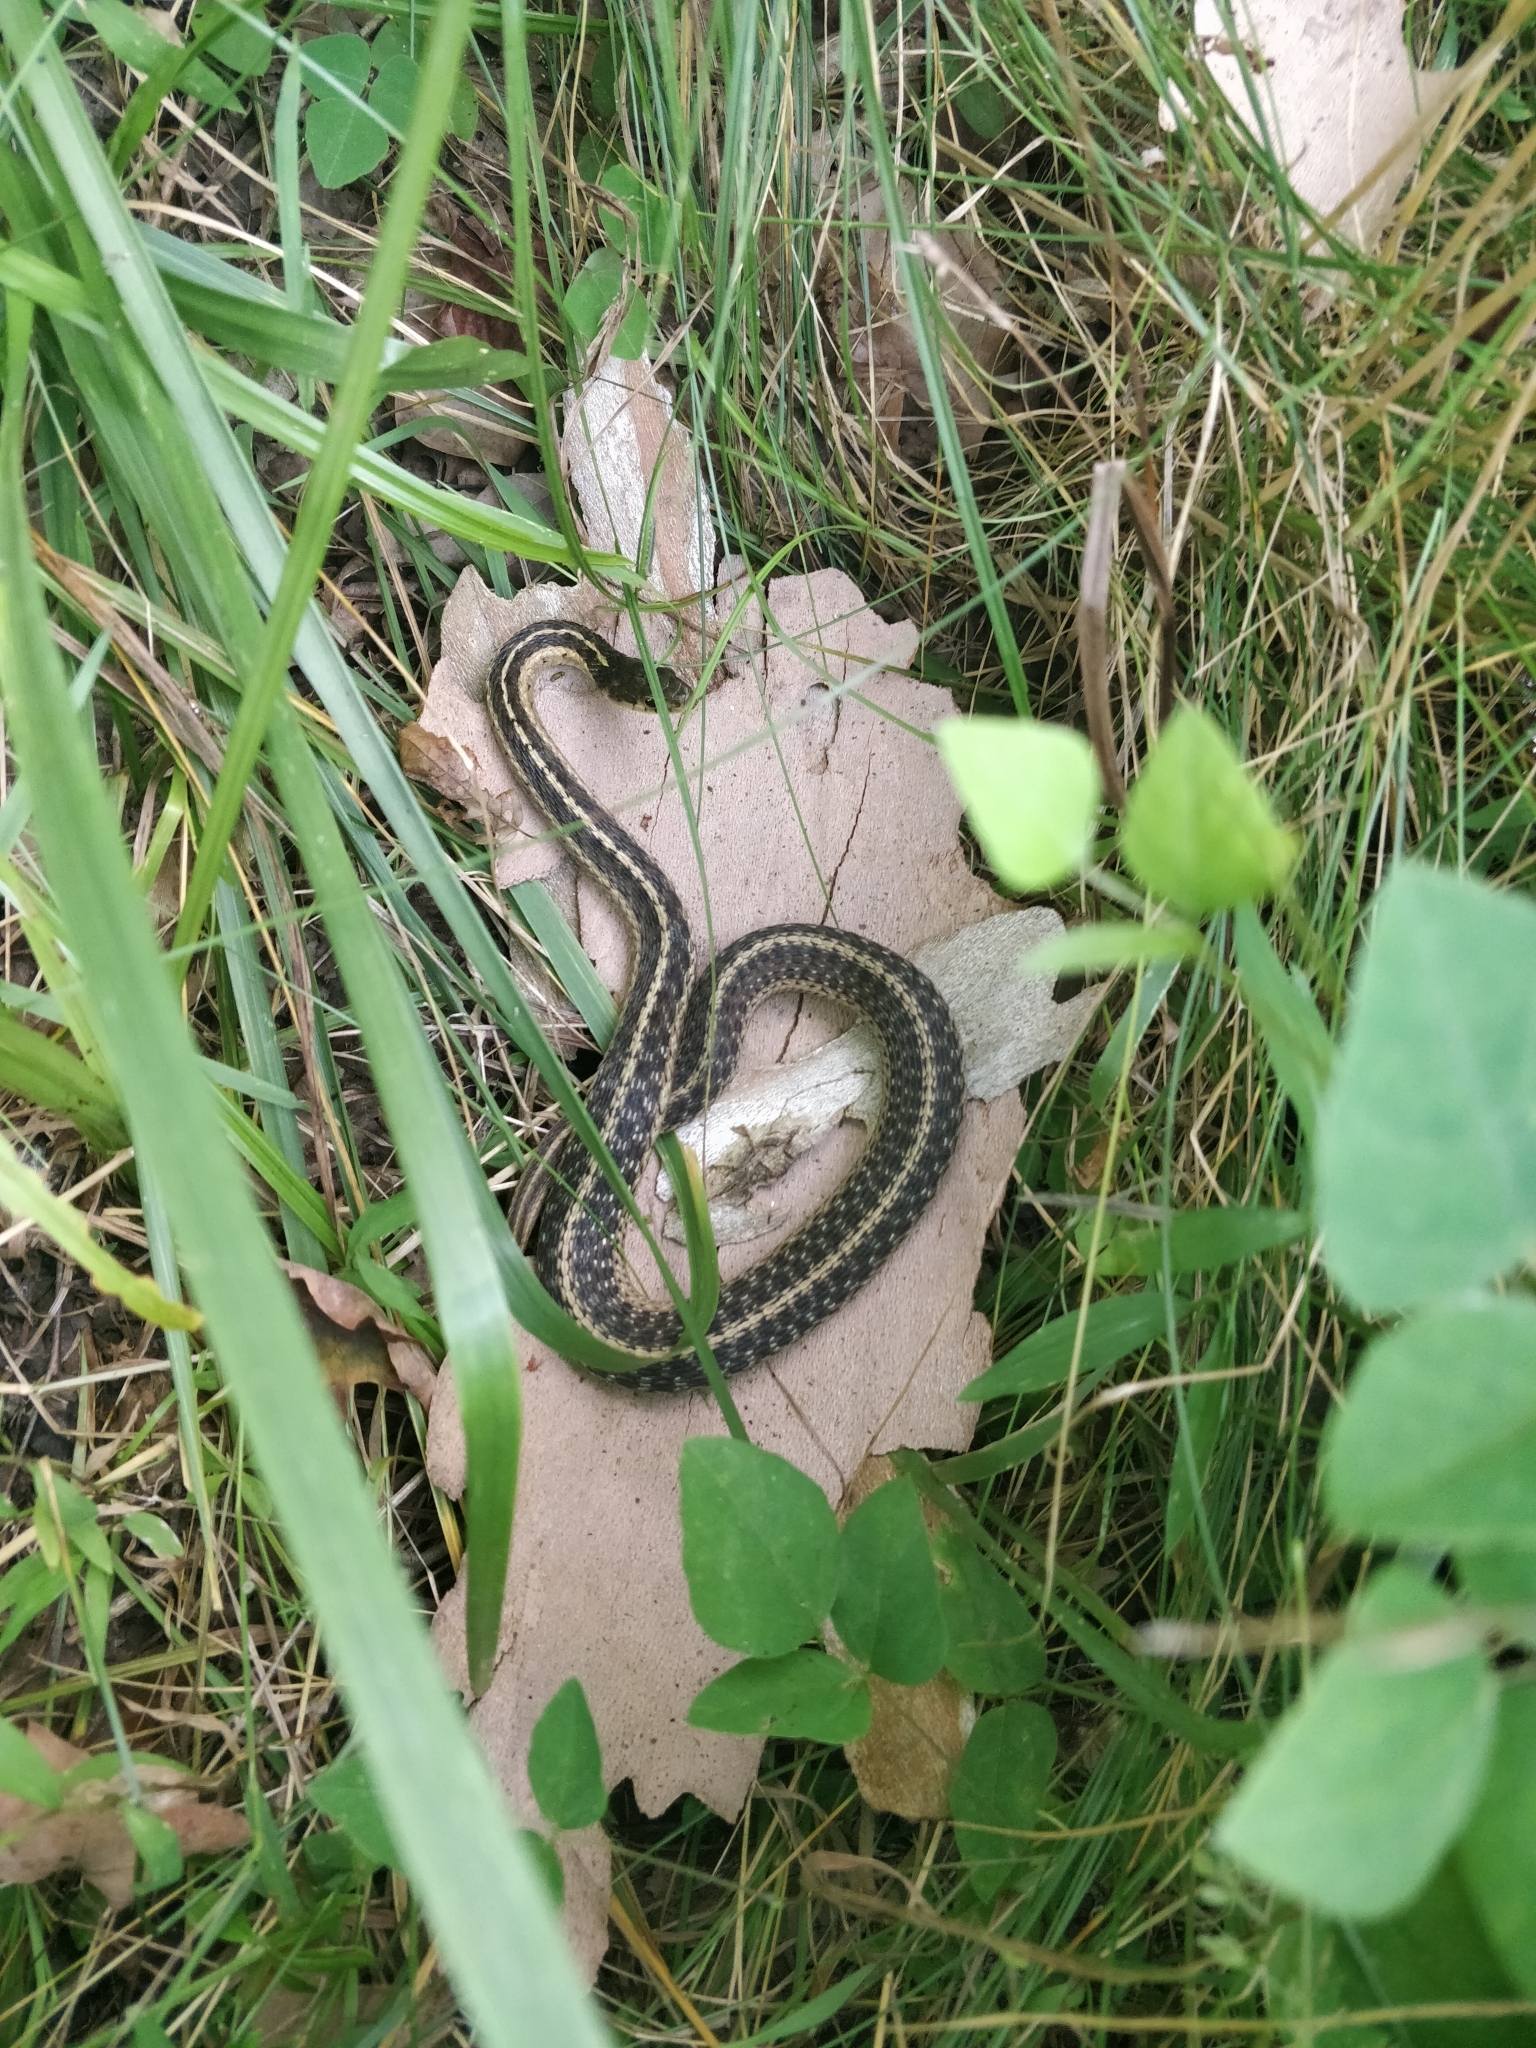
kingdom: Animalia
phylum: Chordata
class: Squamata
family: Colubridae
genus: Thamnophis
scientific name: Thamnophis sirtalis
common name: Common garter snake
